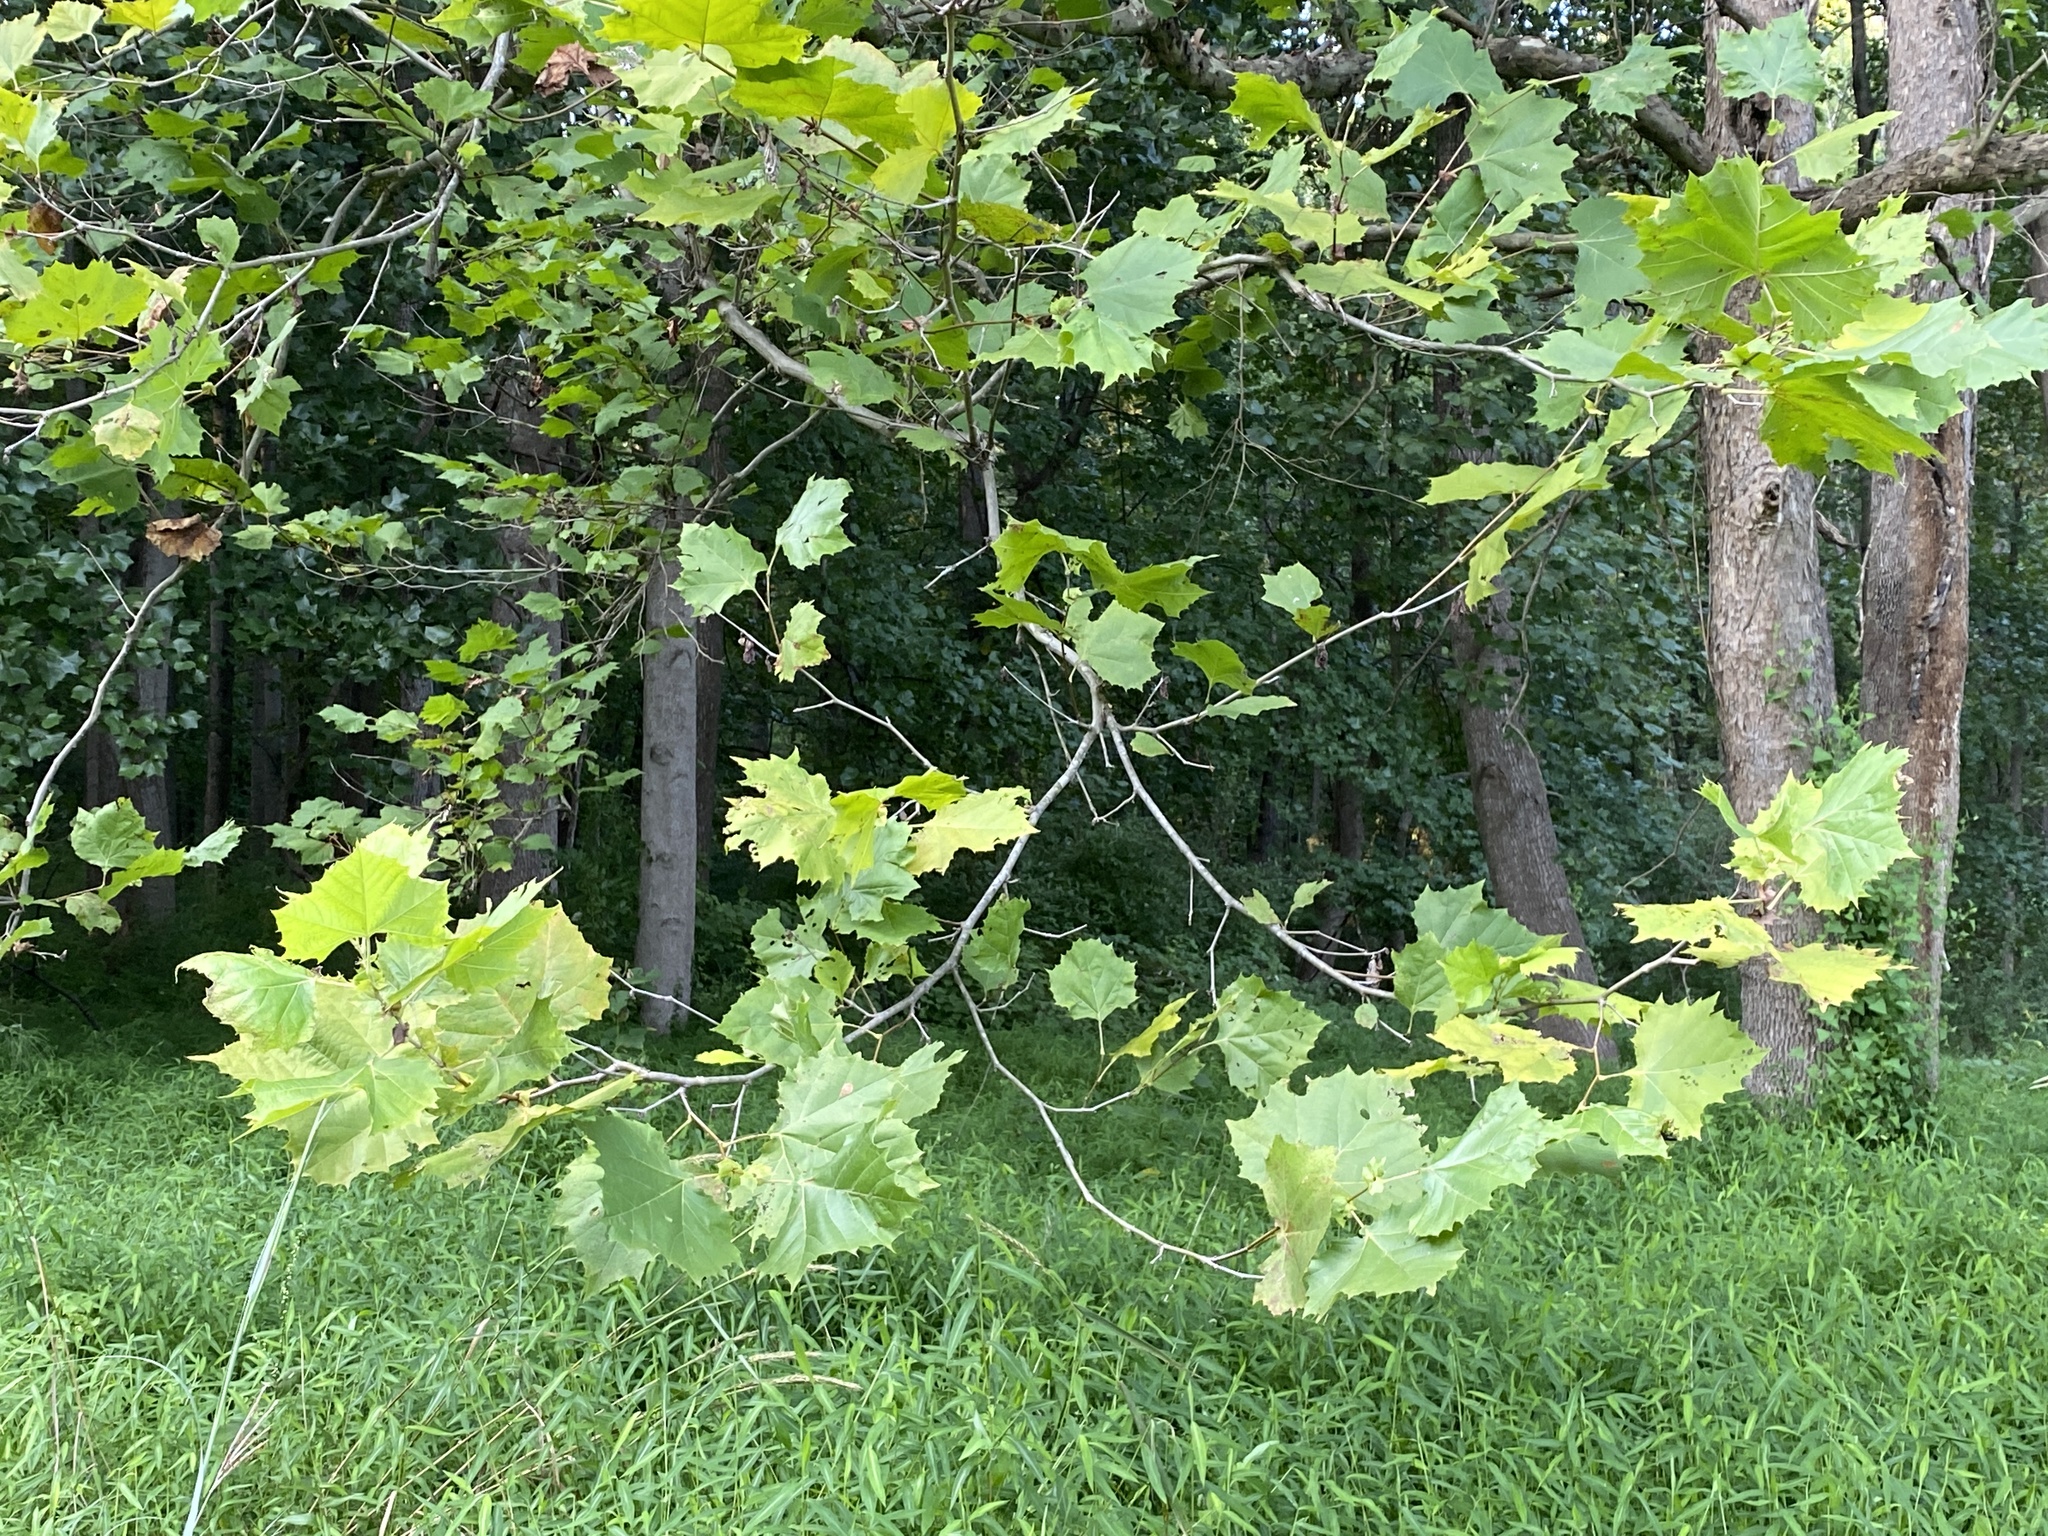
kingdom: Plantae
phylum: Tracheophyta
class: Magnoliopsida
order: Proteales
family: Platanaceae
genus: Platanus
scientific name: Platanus occidentalis
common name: American sycamore
